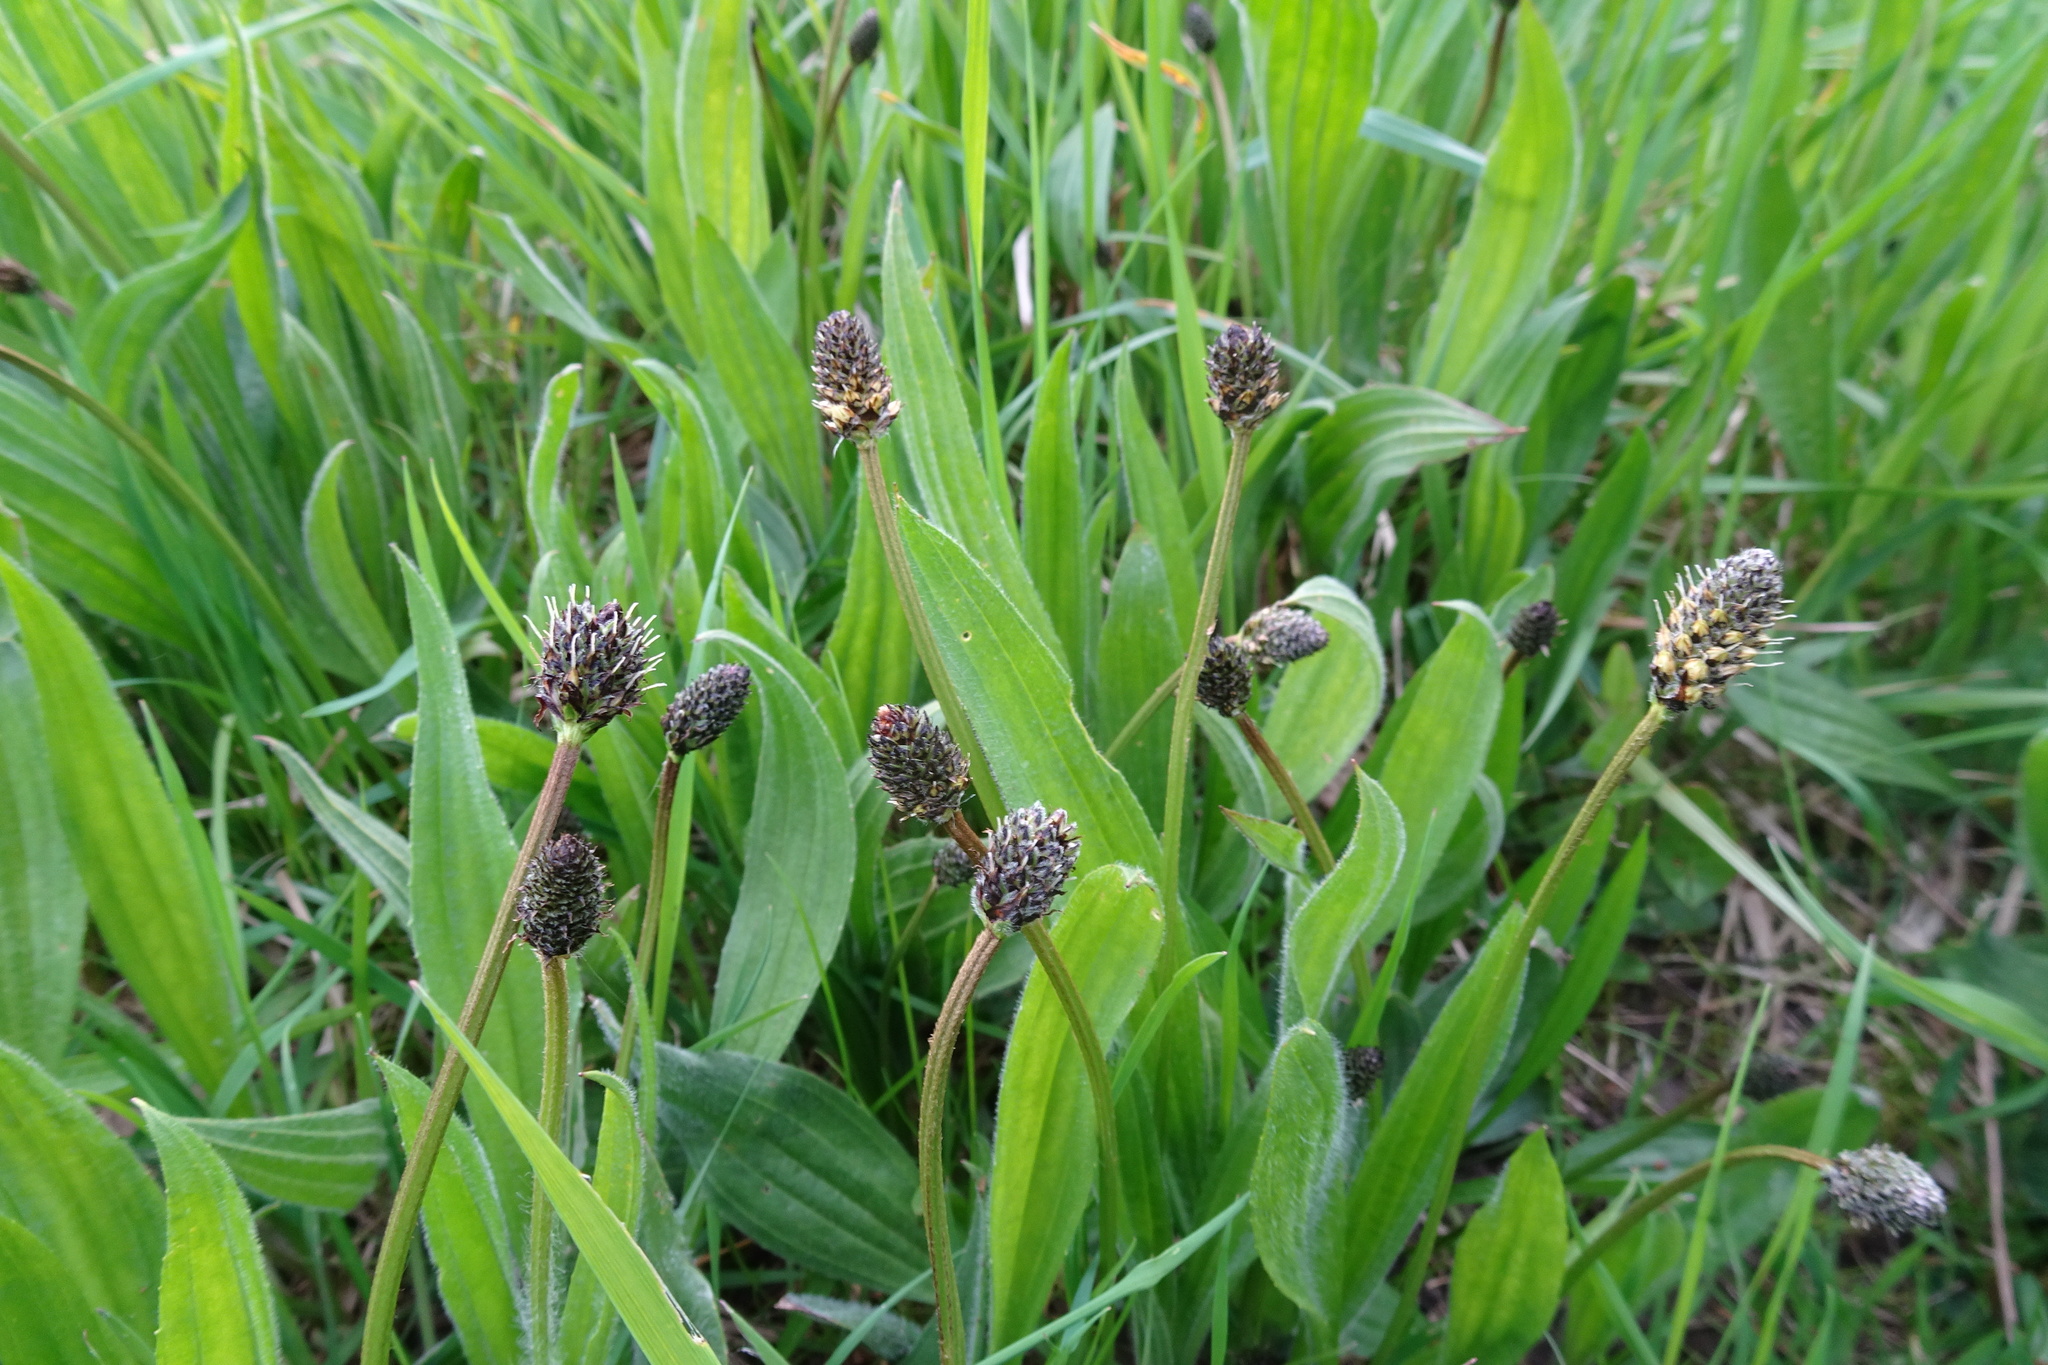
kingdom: Plantae
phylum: Tracheophyta
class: Magnoliopsida
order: Lamiales
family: Plantaginaceae
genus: Plantago
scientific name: Plantago lanceolata
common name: Ribwort plantain
